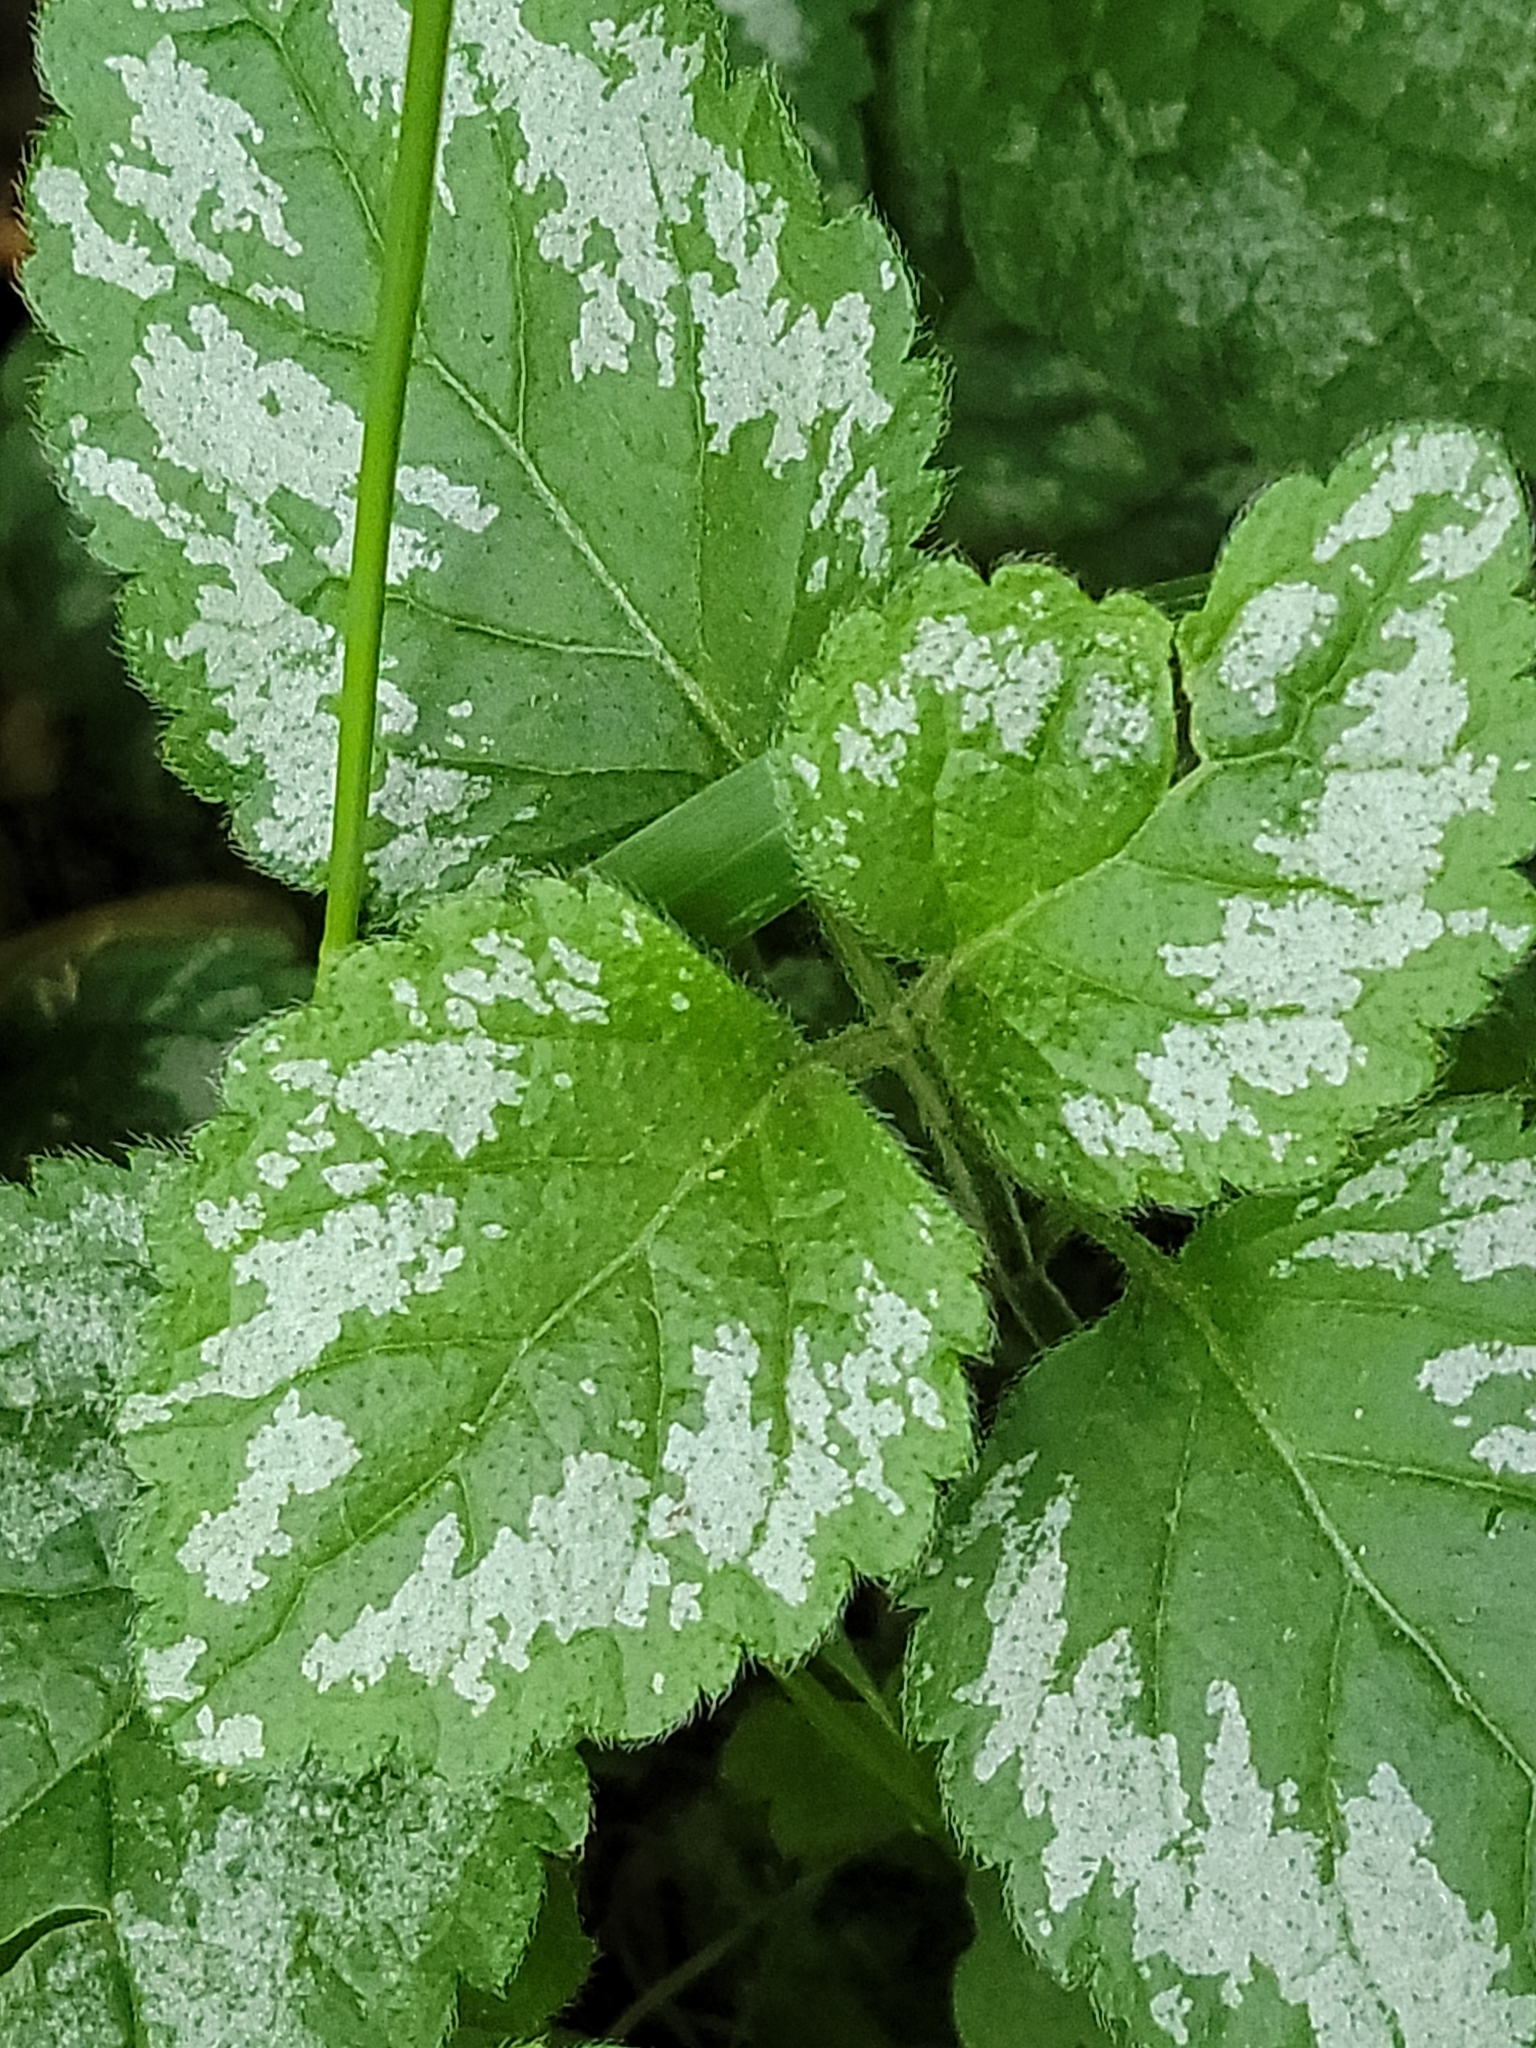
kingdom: Plantae
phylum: Tracheophyta
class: Magnoliopsida
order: Lamiales
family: Lamiaceae
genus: Lamium
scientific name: Lamium galeobdolon
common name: Yellow archangel
